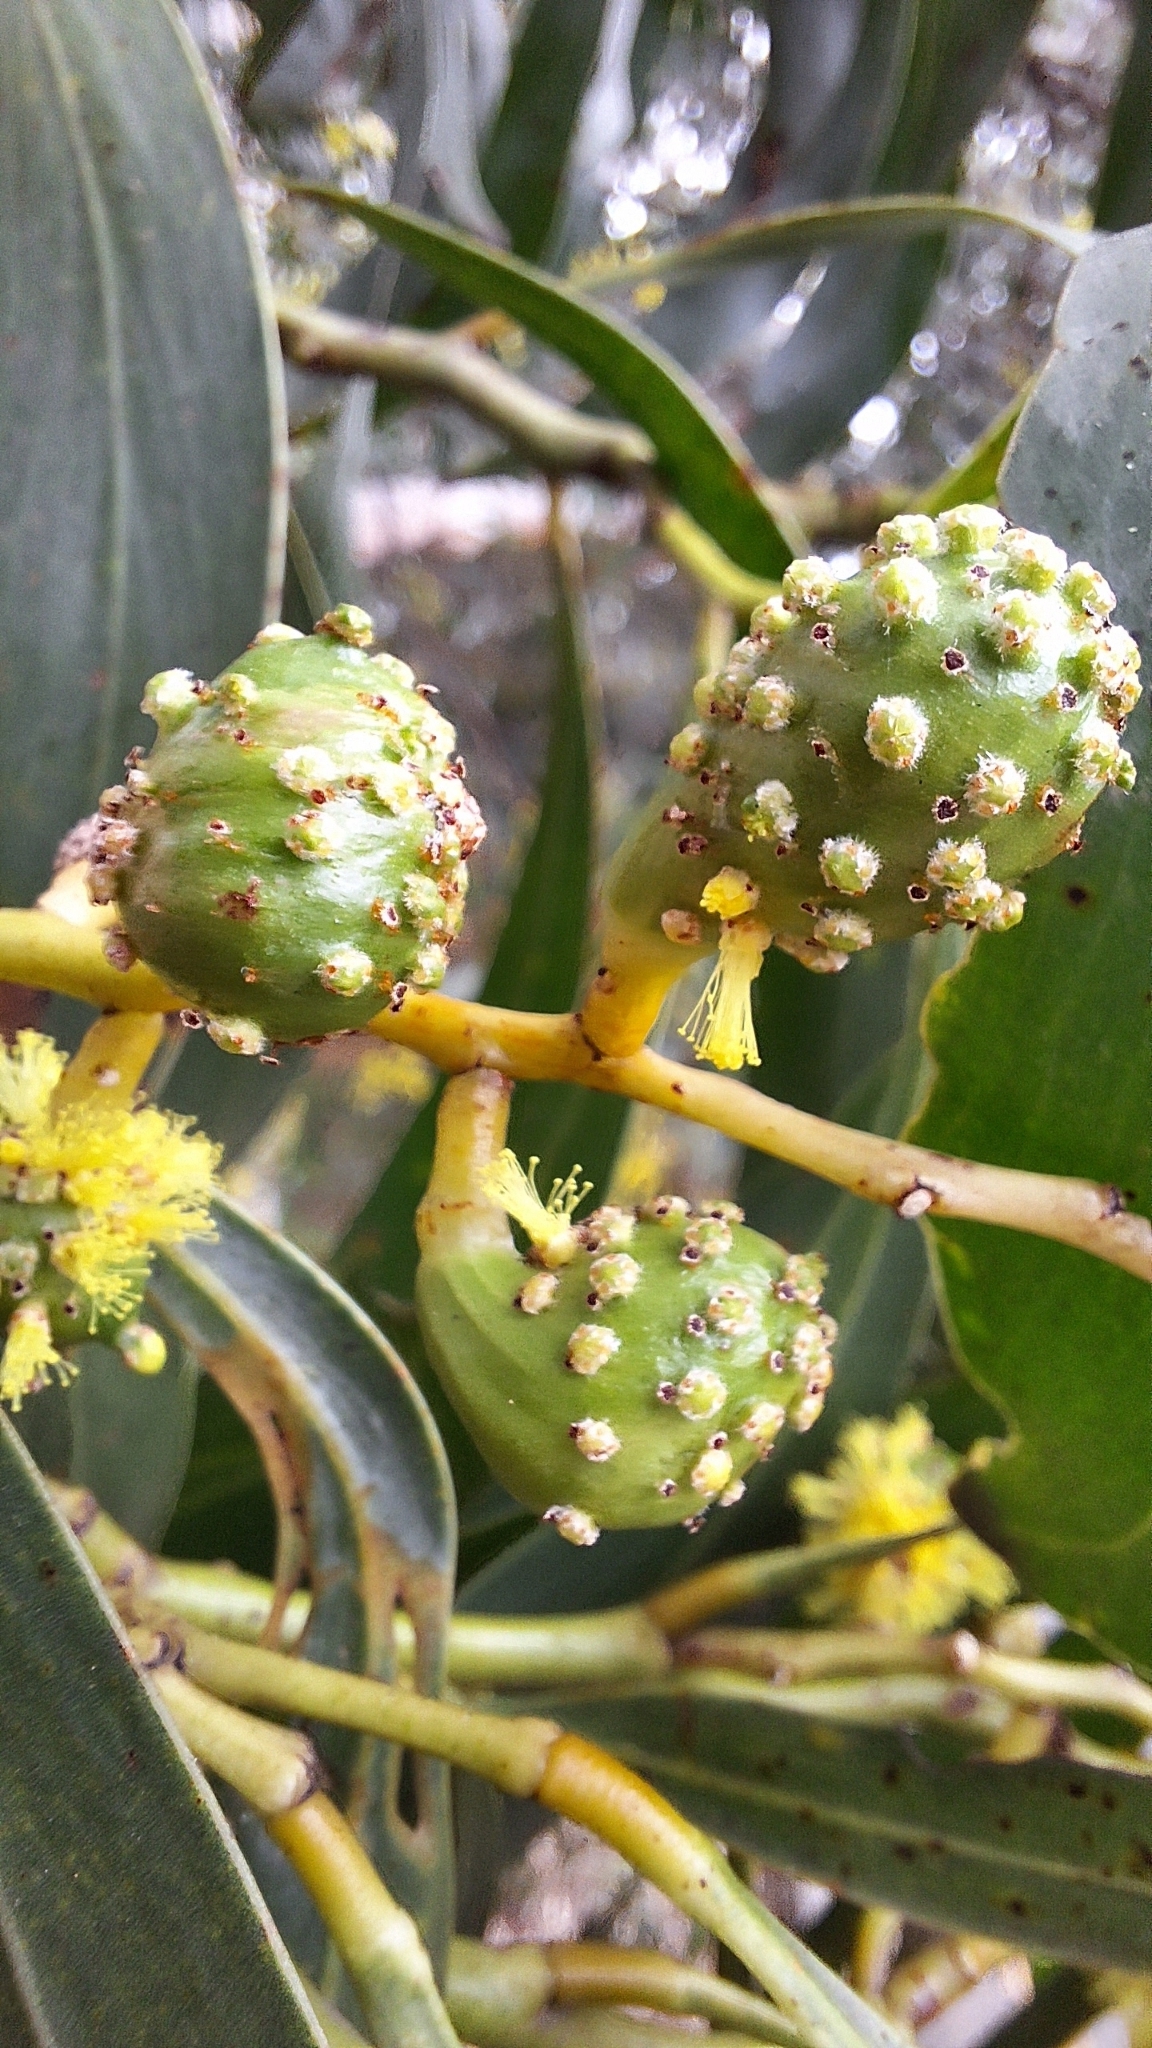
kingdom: Animalia
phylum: Arthropoda
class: Insecta
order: Hymenoptera
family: Pteromalidae
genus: Trichilogaster
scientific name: Trichilogaster signiventris
